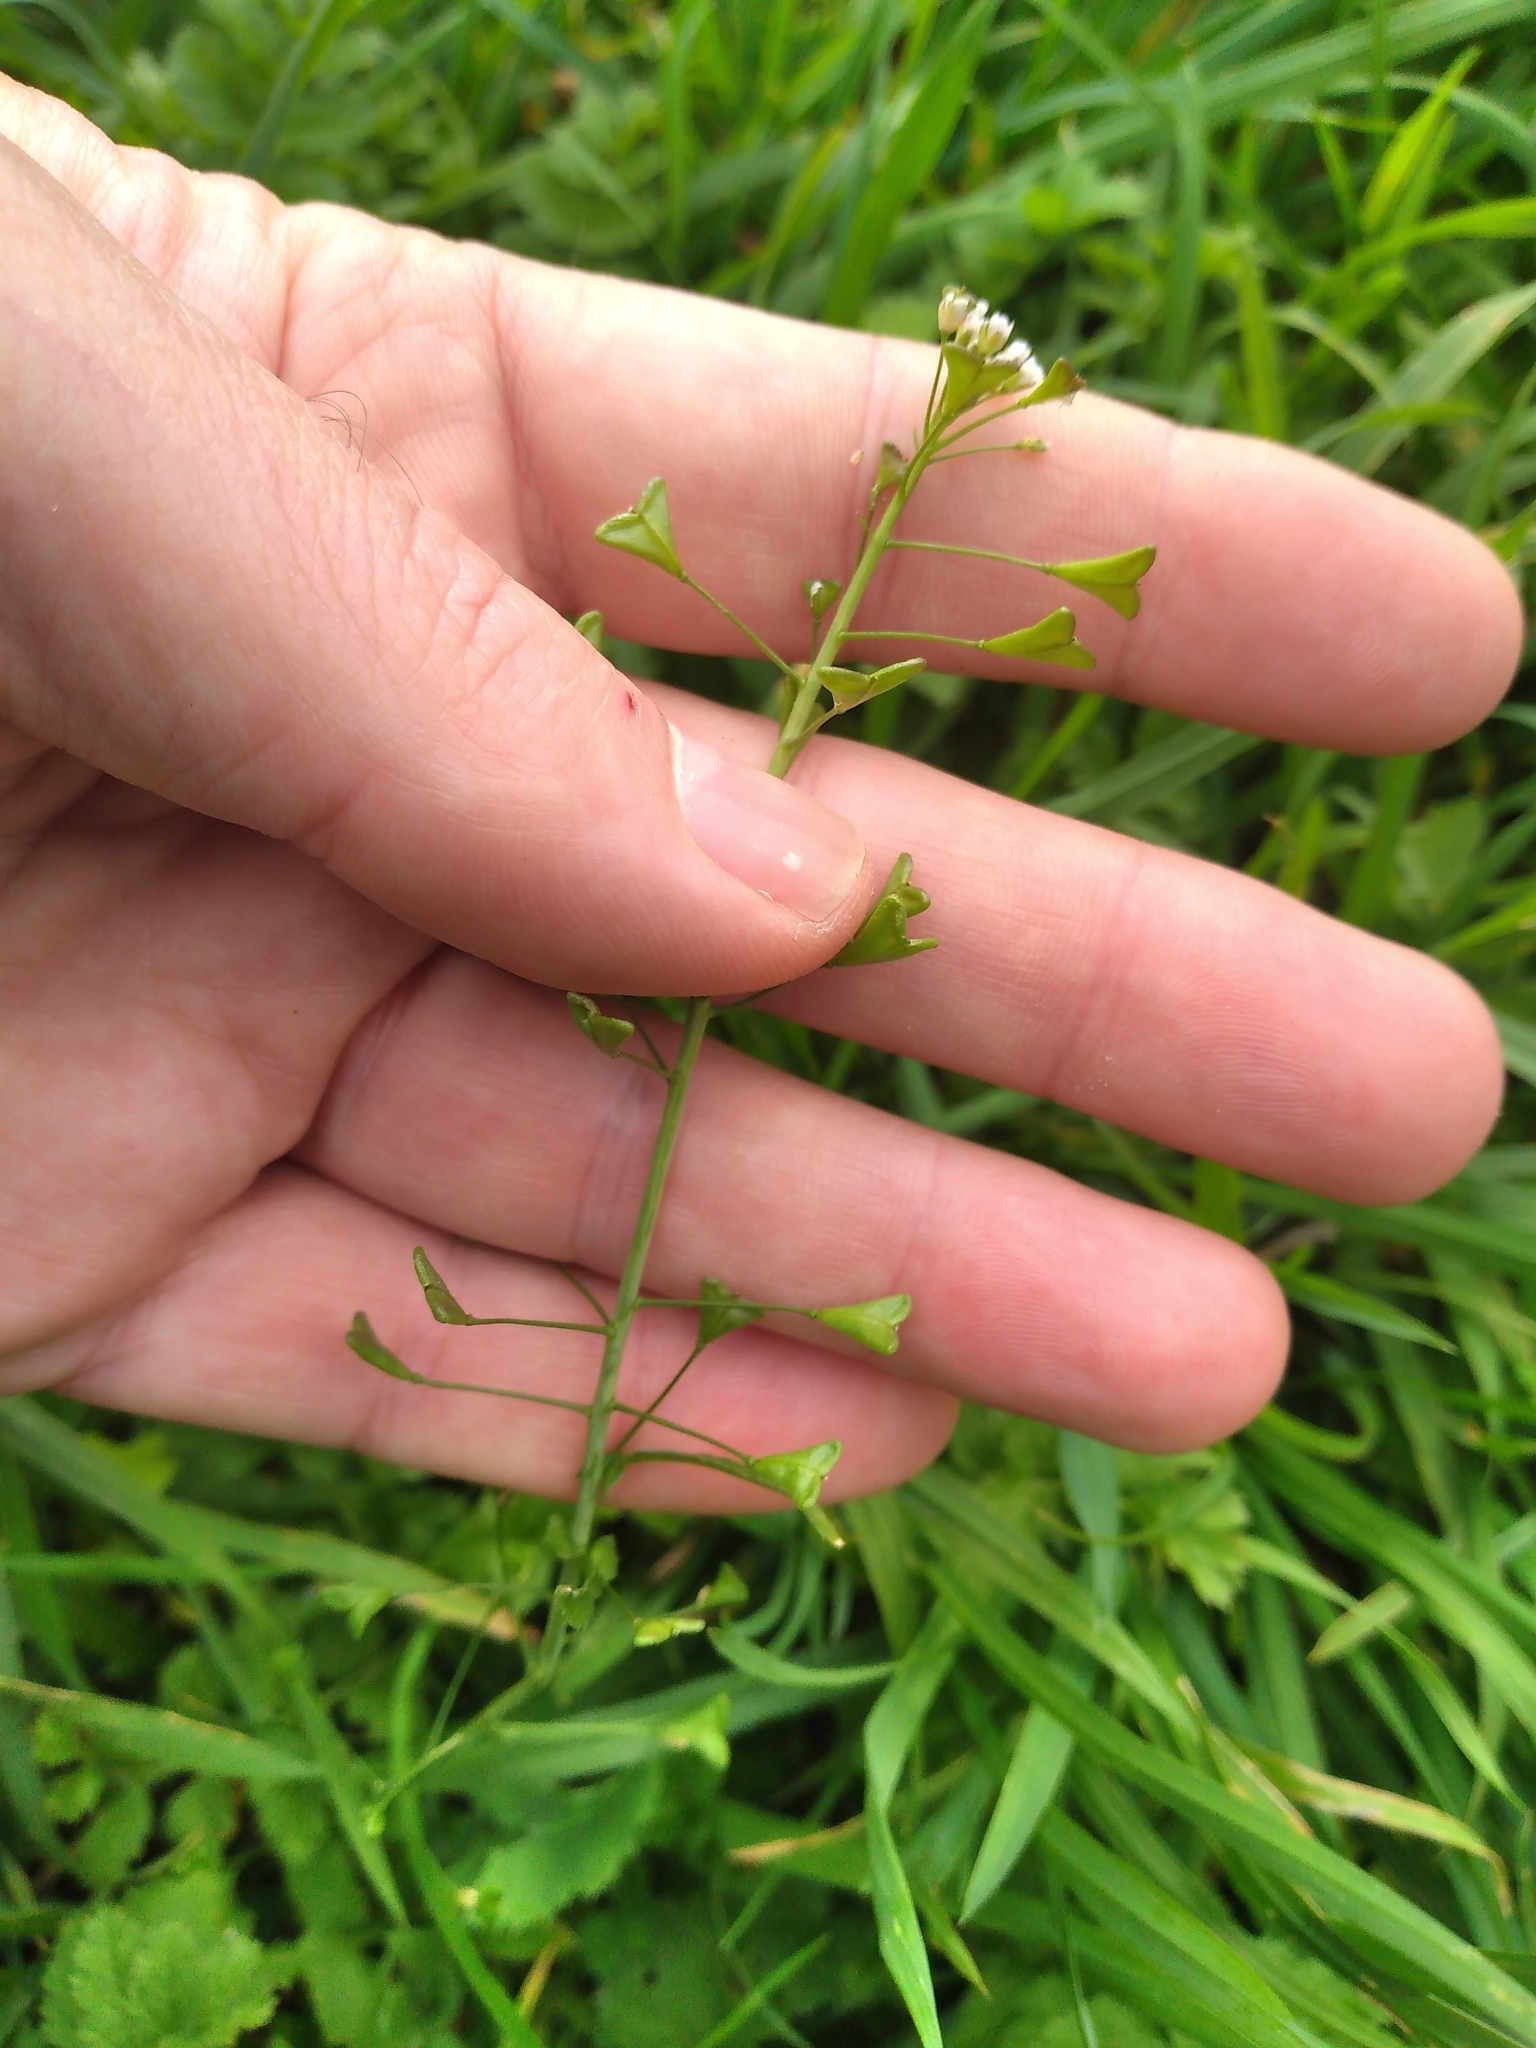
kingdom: Plantae
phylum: Tracheophyta
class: Magnoliopsida
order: Brassicales
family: Brassicaceae
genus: Capsella
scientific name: Capsella bursa-pastoris
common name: Shepherd's purse
